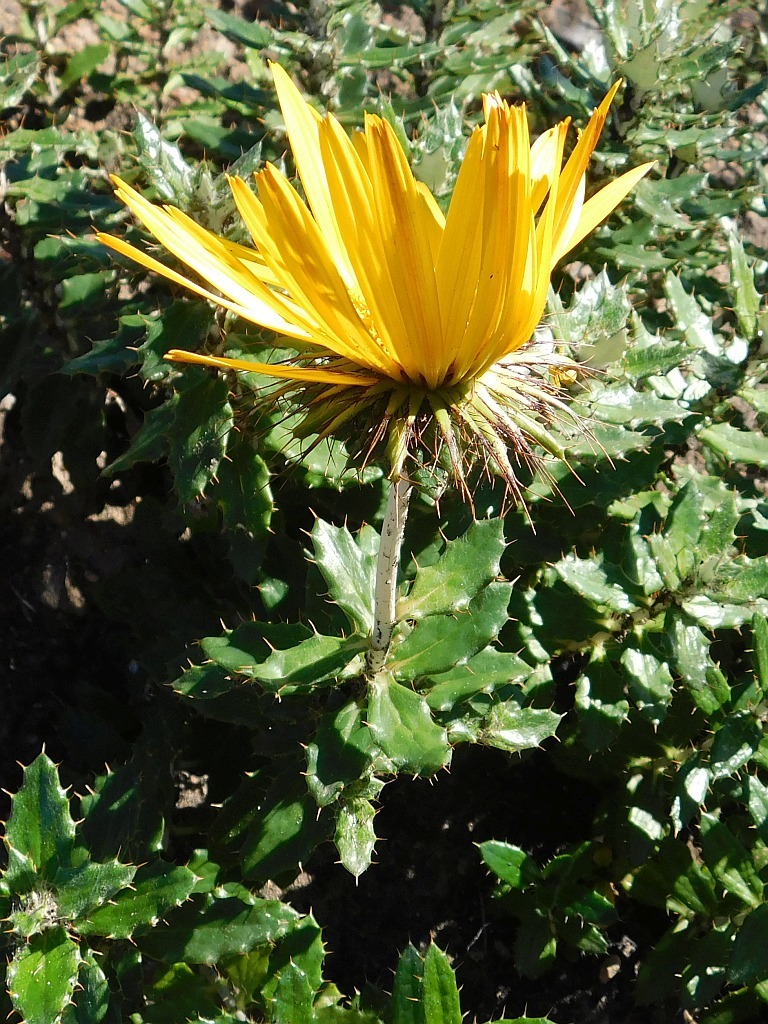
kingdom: Plantae
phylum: Tracheophyta
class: Magnoliopsida
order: Asterales
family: Asteraceae
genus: Berkheya
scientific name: Berkheya barbata
